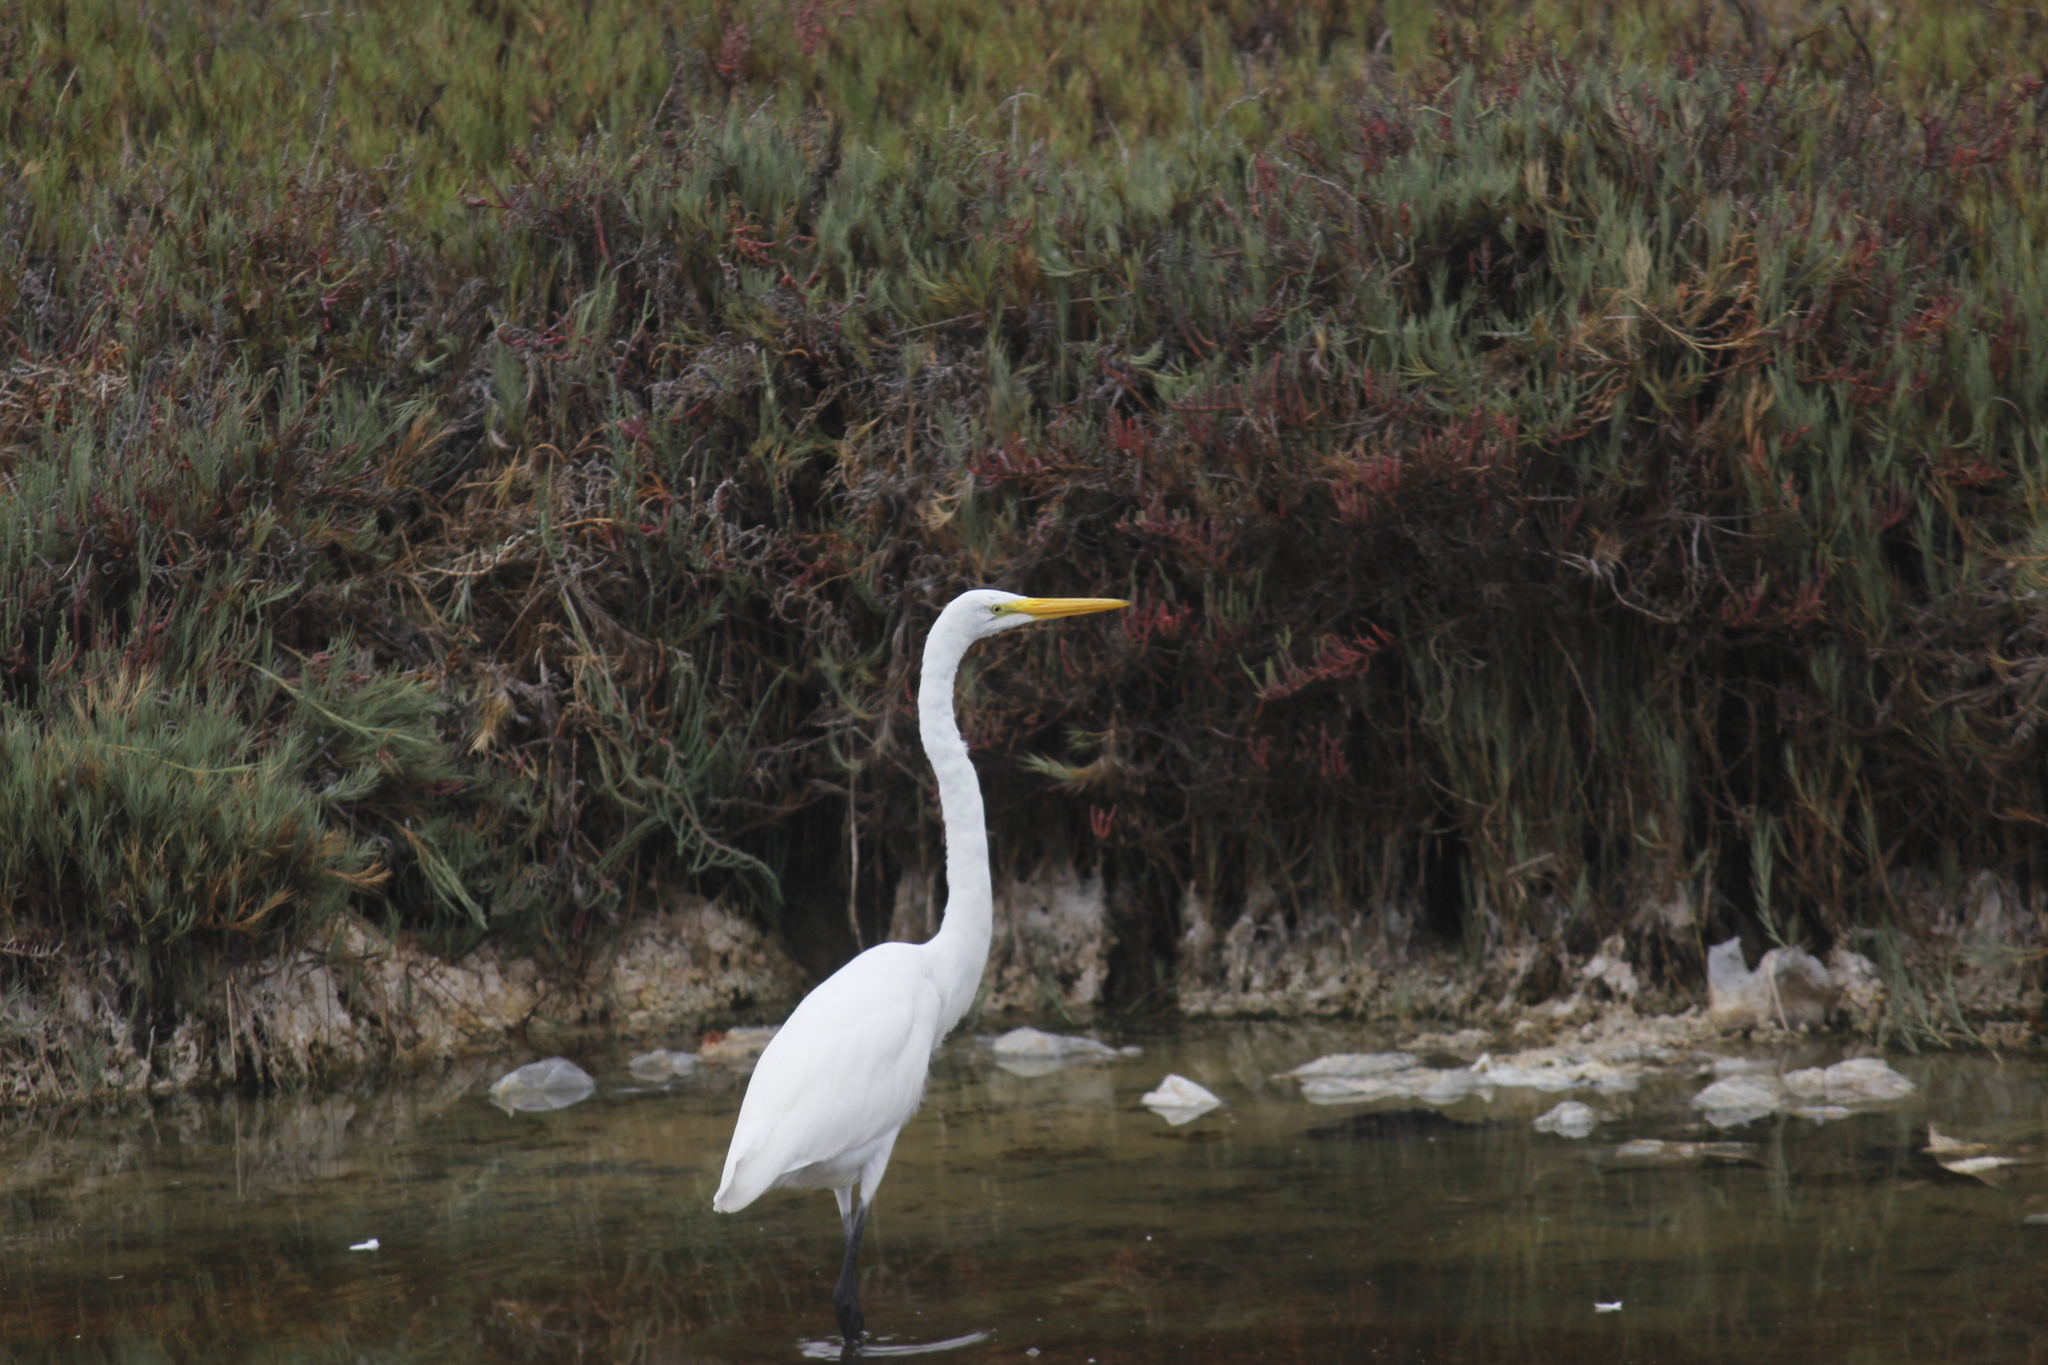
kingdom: Animalia
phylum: Chordata
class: Aves
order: Pelecaniformes
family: Ardeidae
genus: Ardea
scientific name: Ardea alba
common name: Great egret
